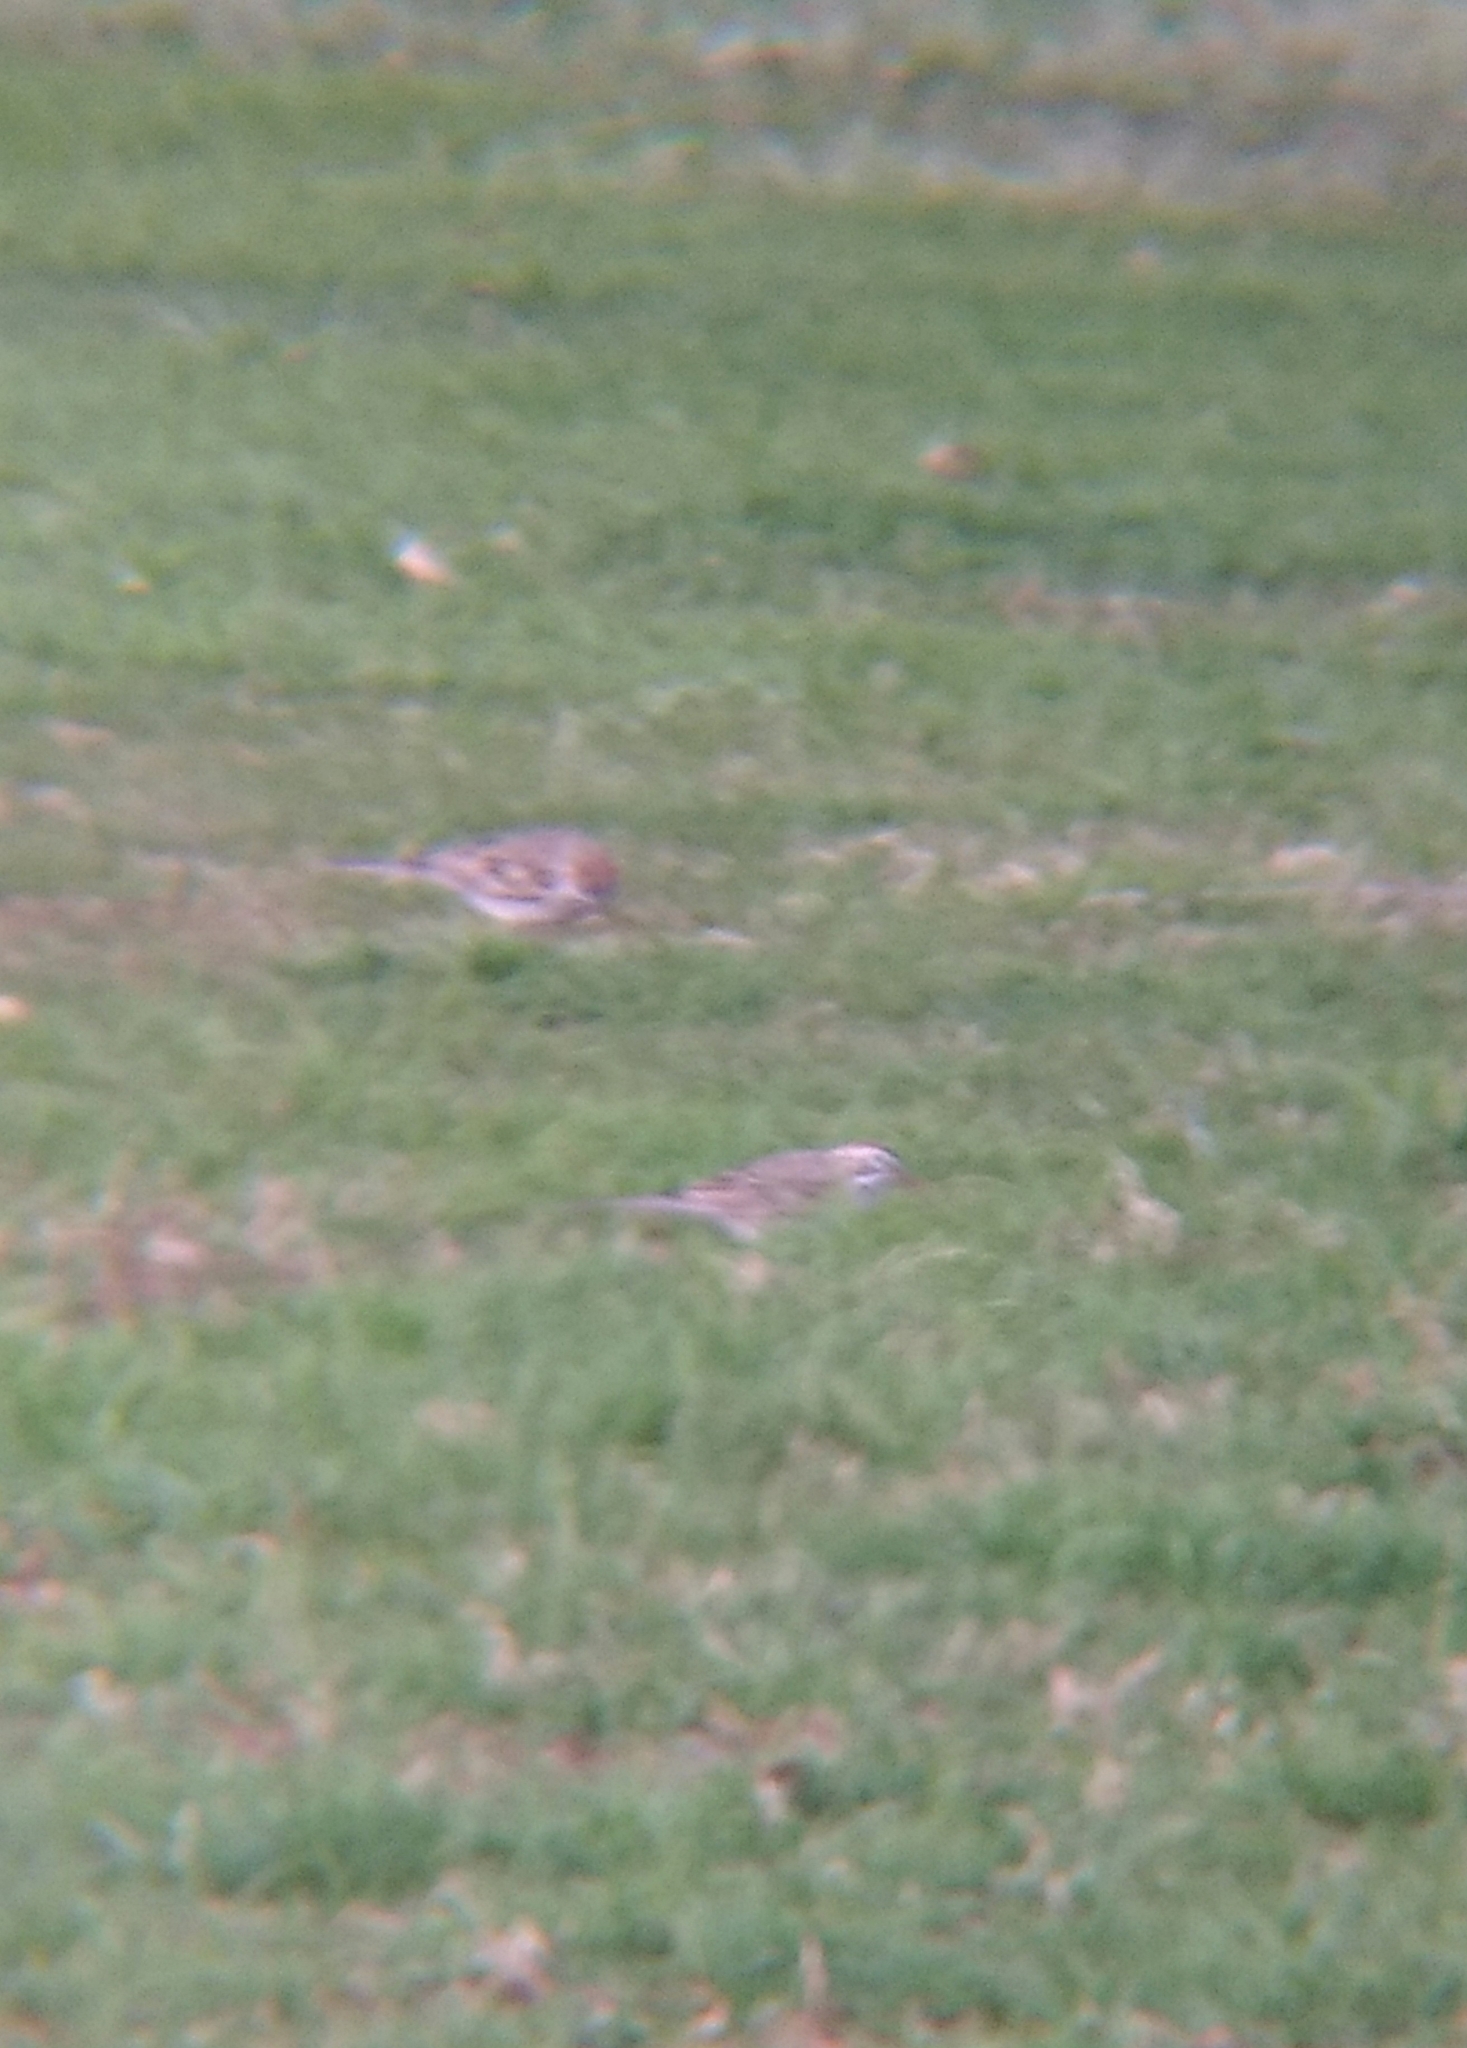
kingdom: Animalia
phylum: Chordata
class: Aves
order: Passeriformes
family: Passerellidae
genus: Chondestes
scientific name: Chondestes grammacus
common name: Lark sparrow
